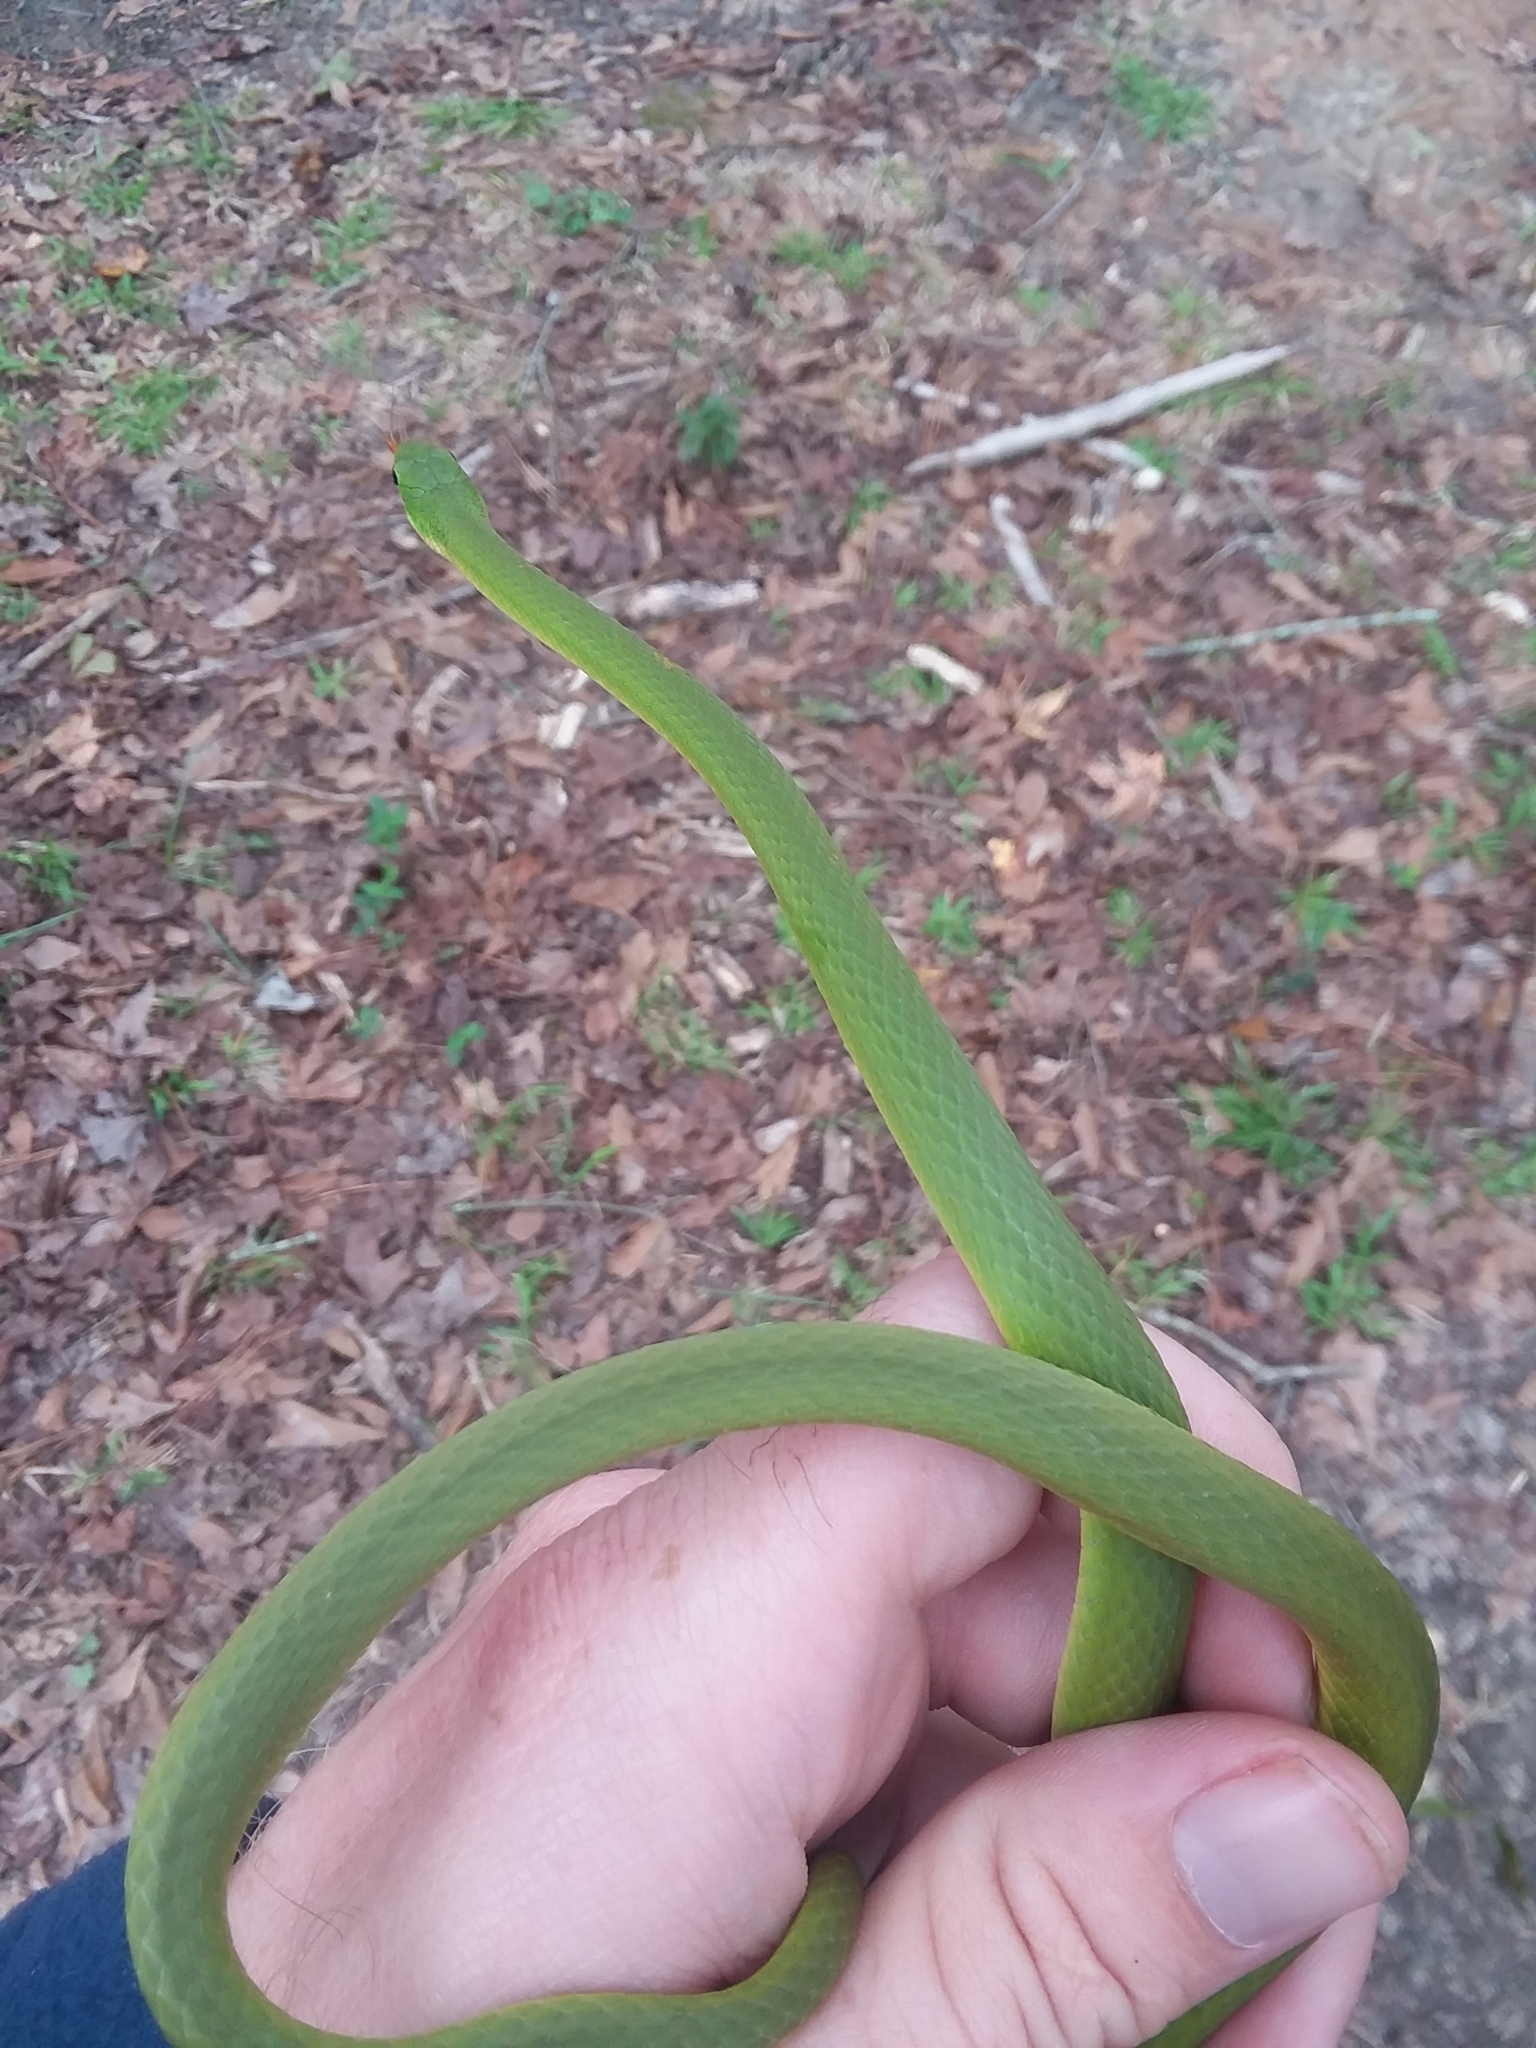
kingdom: Animalia
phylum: Chordata
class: Squamata
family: Colubridae
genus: Opheodrys
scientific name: Opheodrys aestivus
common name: Rough greensnake
